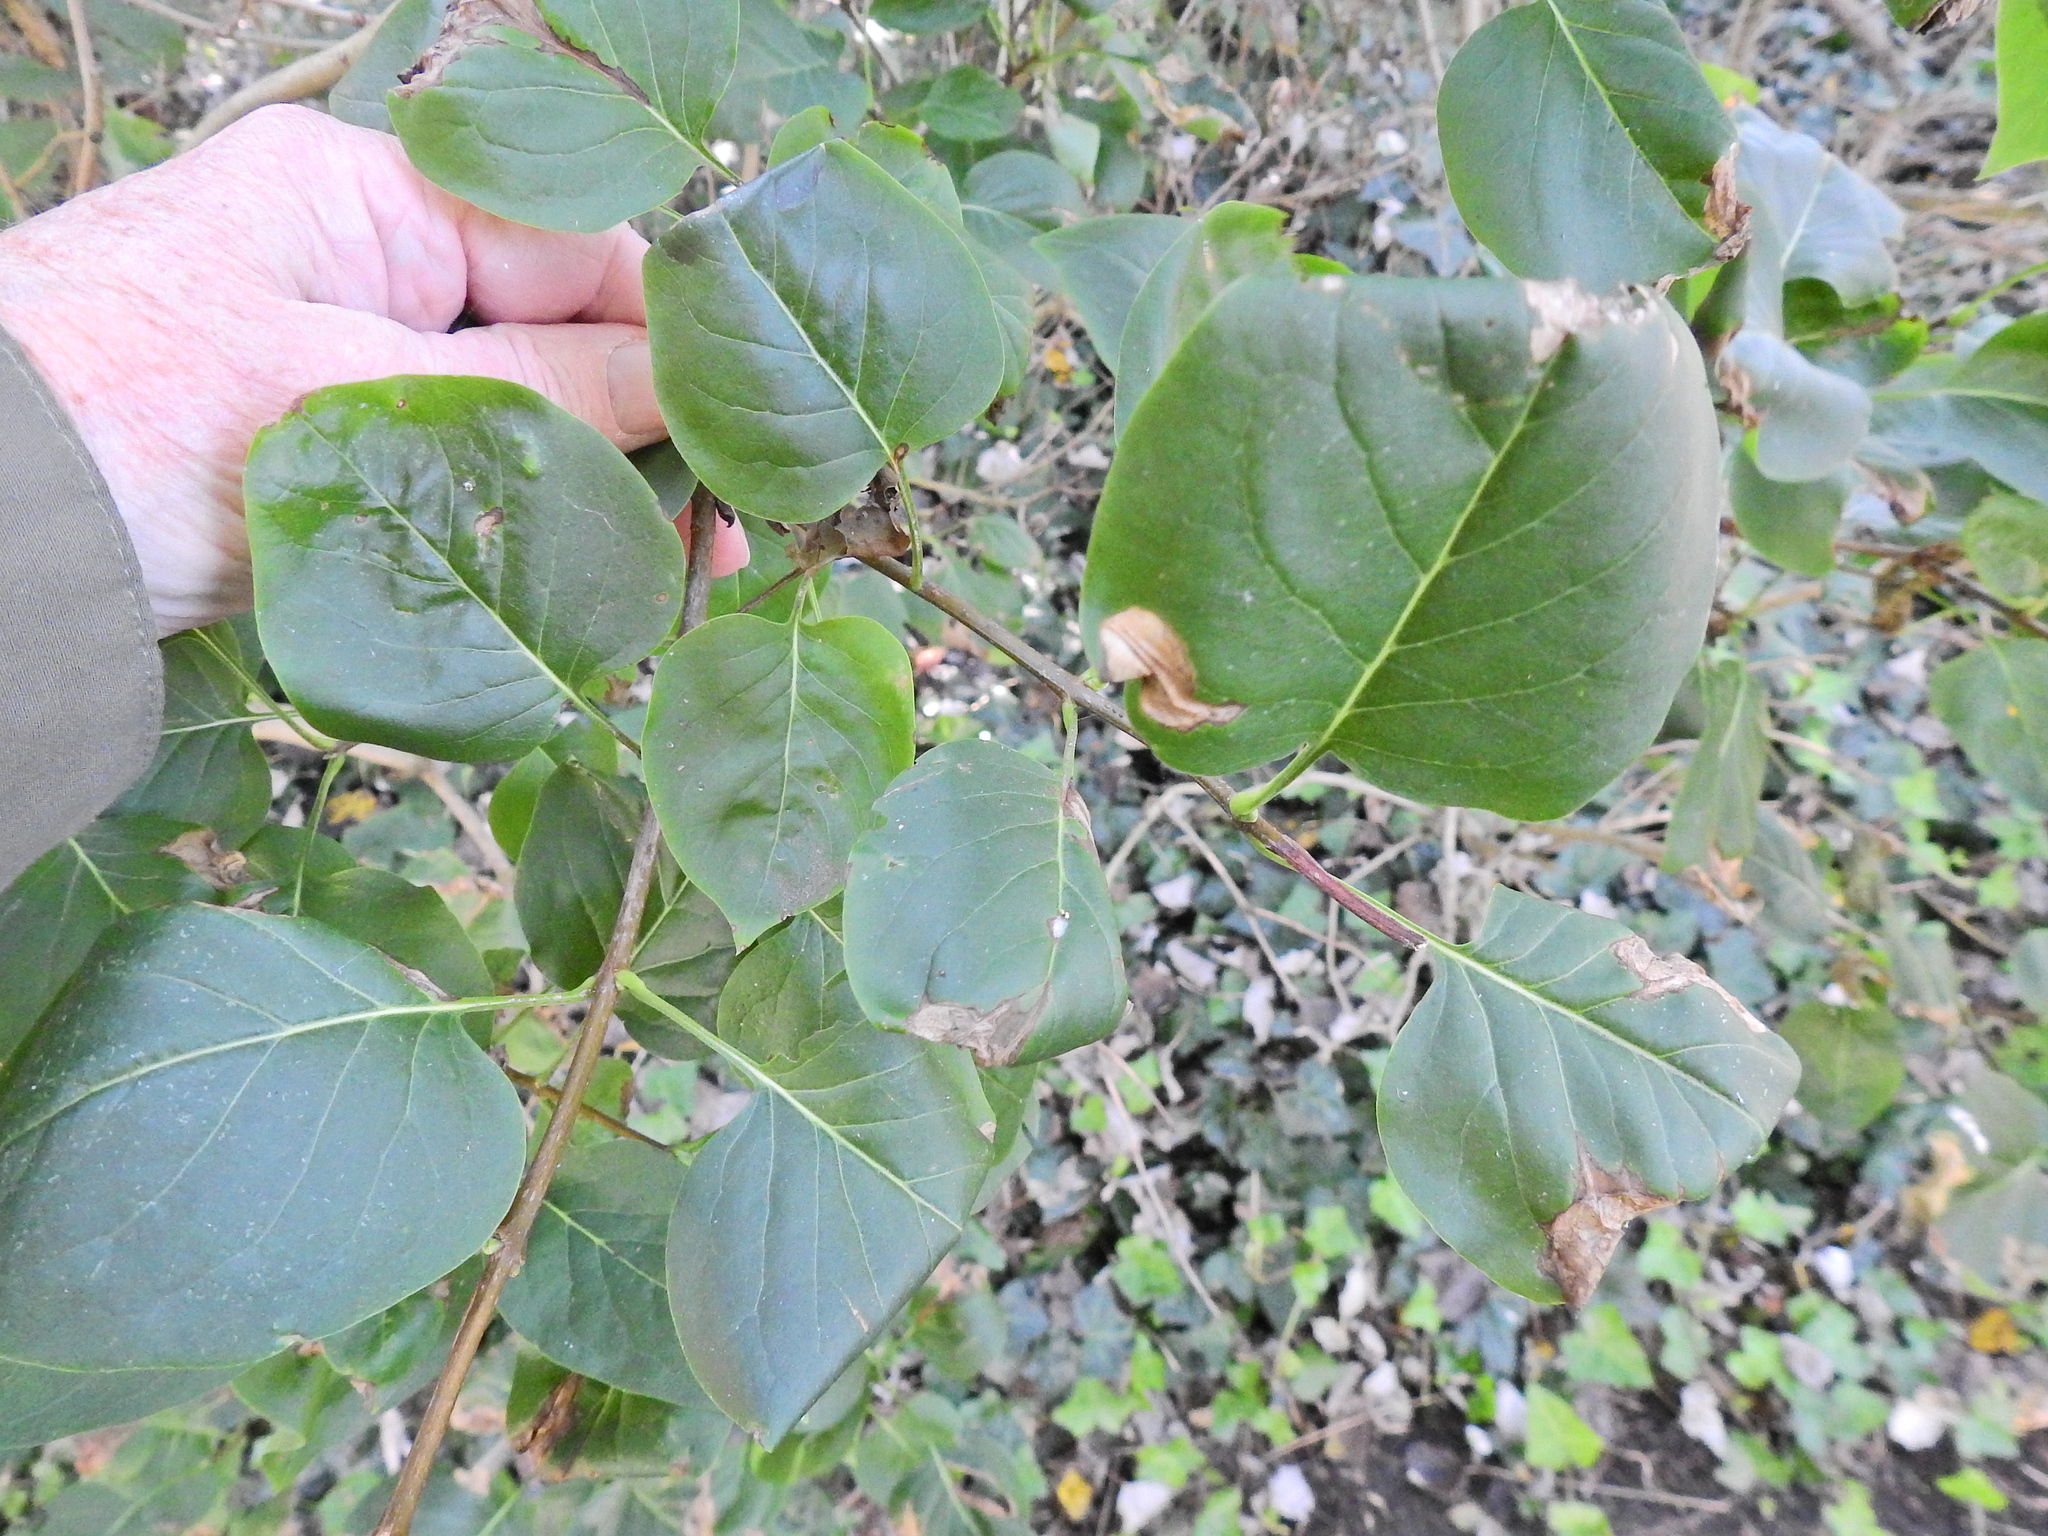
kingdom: Plantae
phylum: Tracheophyta
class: Magnoliopsida
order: Lamiales
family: Oleaceae
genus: Syringa
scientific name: Syringa vulgaris
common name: Common lilac
